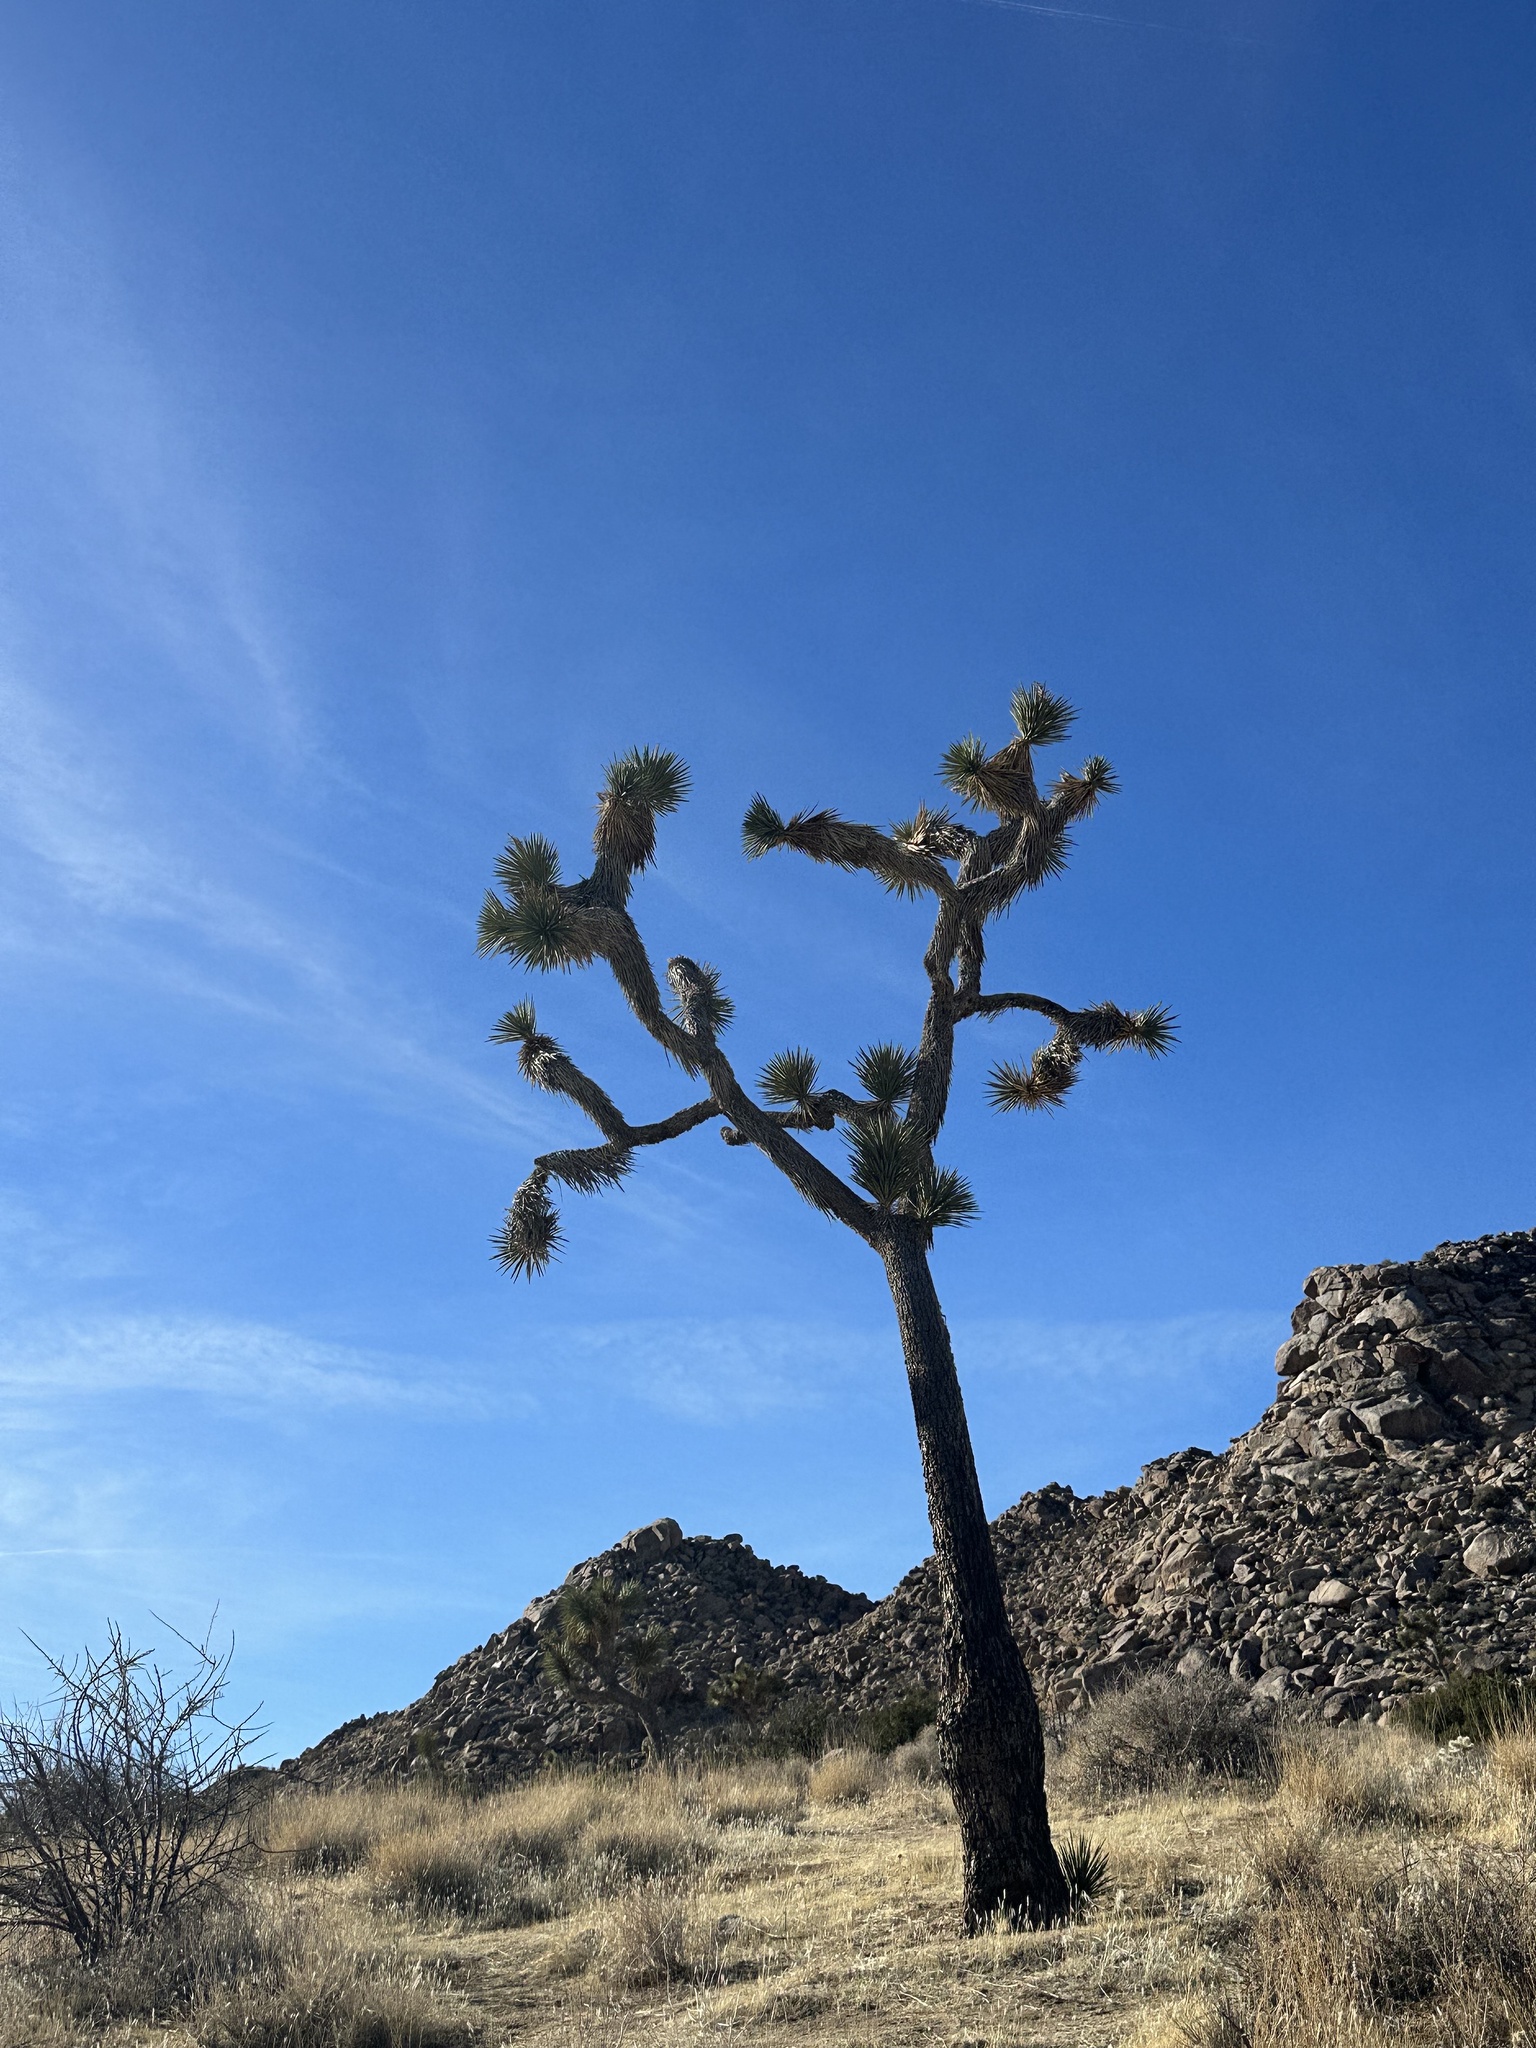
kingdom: Plantae
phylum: Tracheophyta
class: Liliopsida
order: Asparagales
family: Asparagaceae
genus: Yucca
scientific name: Yucca brevifolia
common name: Joshua tree
